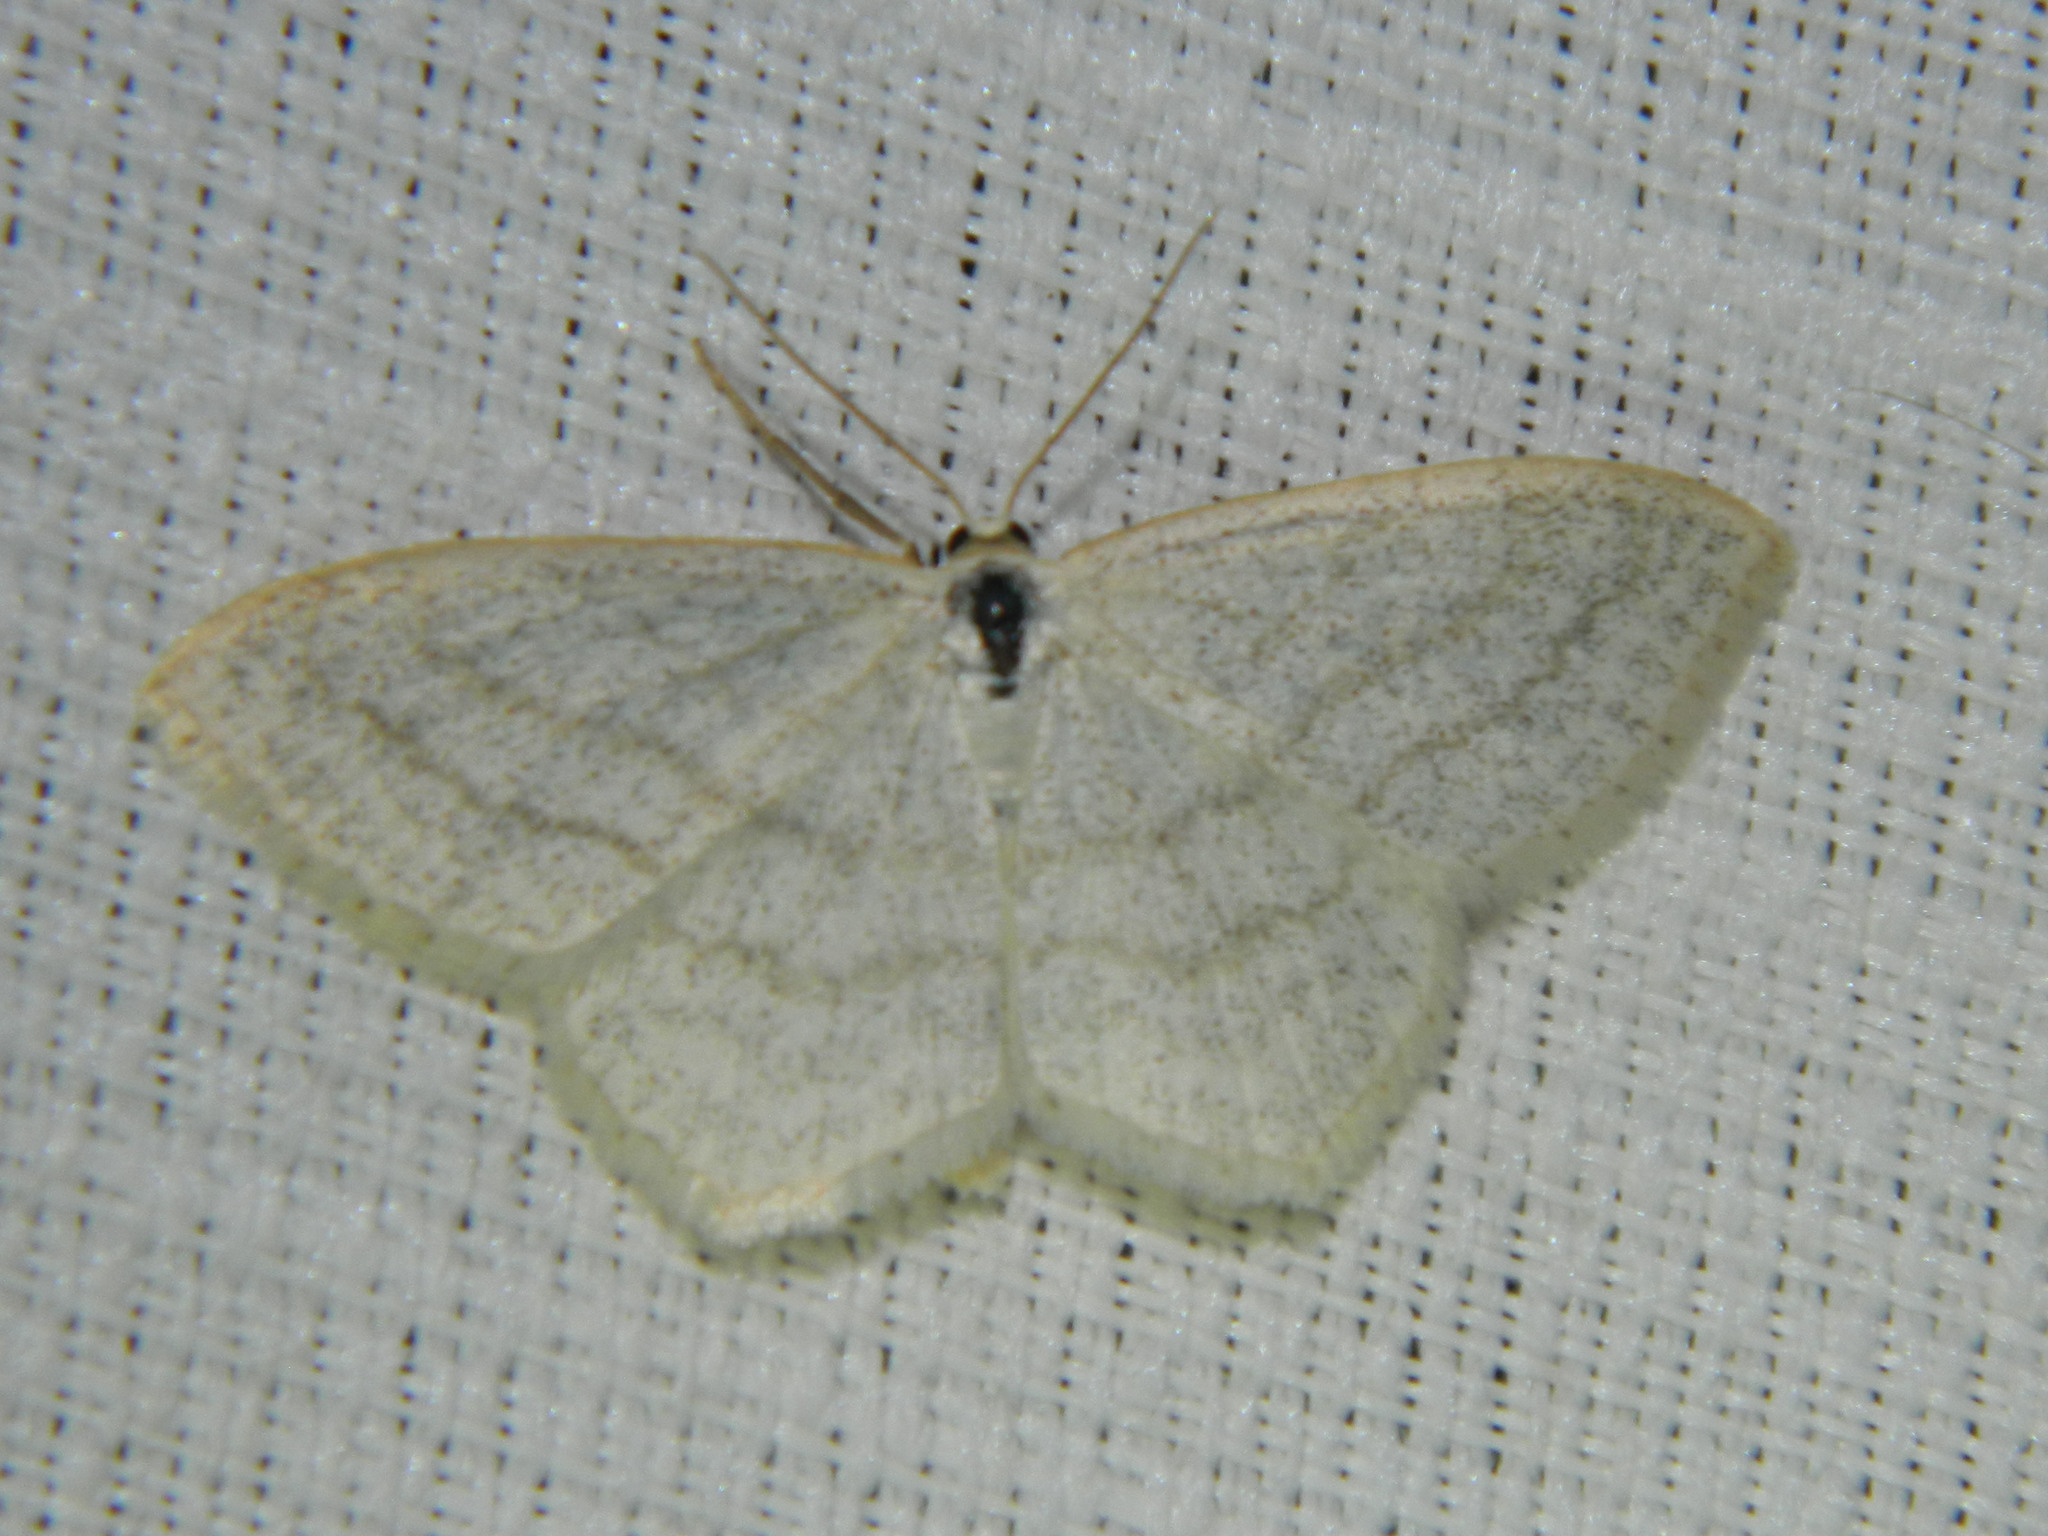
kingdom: Animalia
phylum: Arthropoda
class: Insecta
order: Lepidoptera
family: Geometridae
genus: Scopula
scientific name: Scopula junctaria
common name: Simple wave
